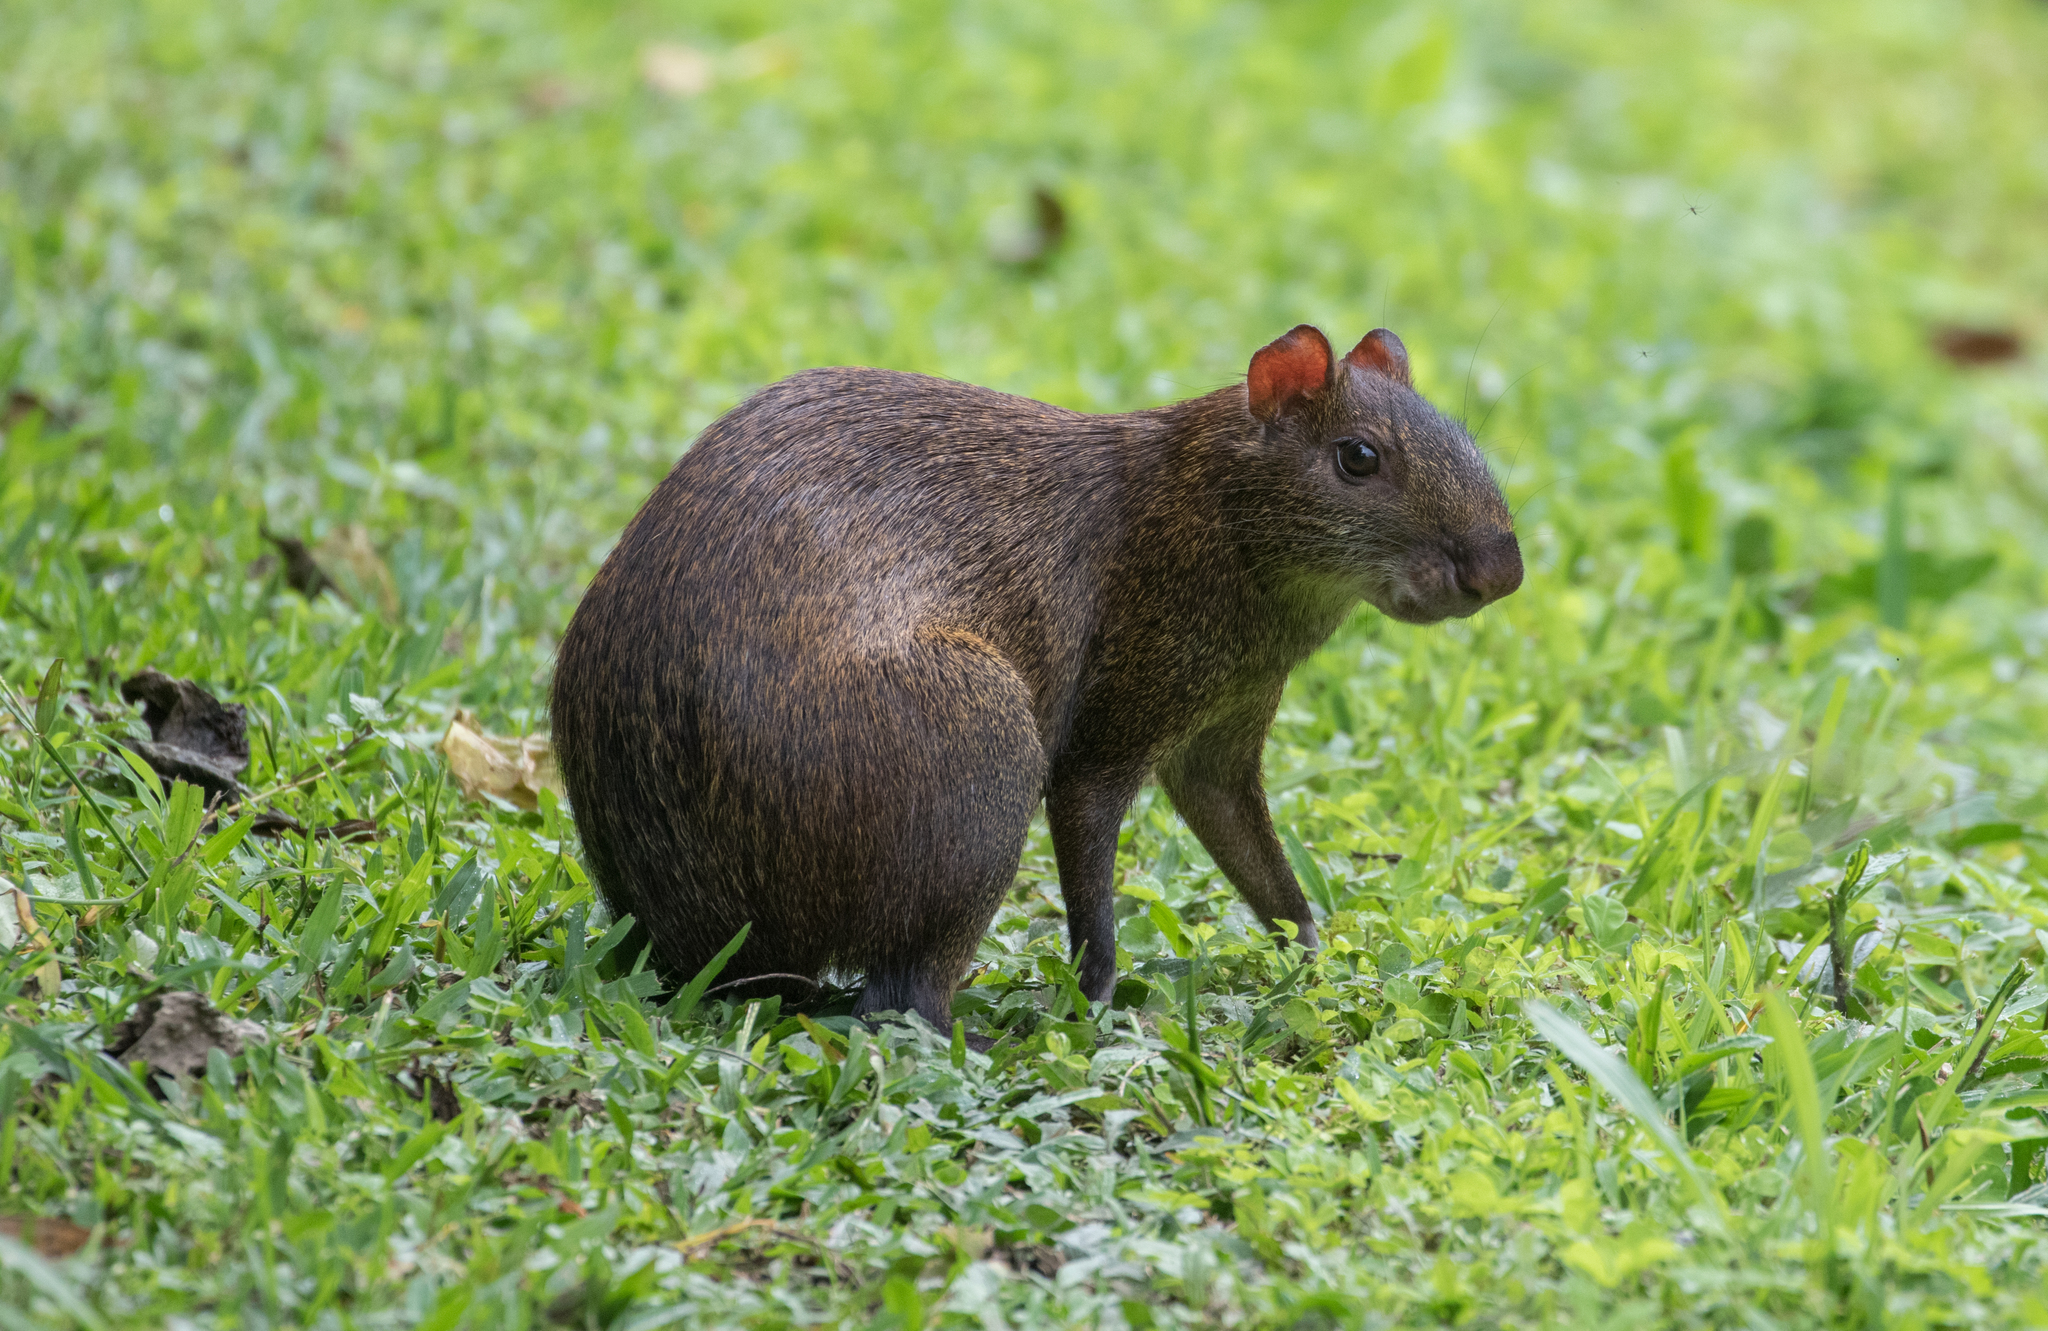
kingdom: Animalia
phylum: Chordata
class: Mammalia
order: Rodentia
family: Dasyproctidae
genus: Dasyprocta
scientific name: Dasyprocta punctata
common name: Central american agouti
